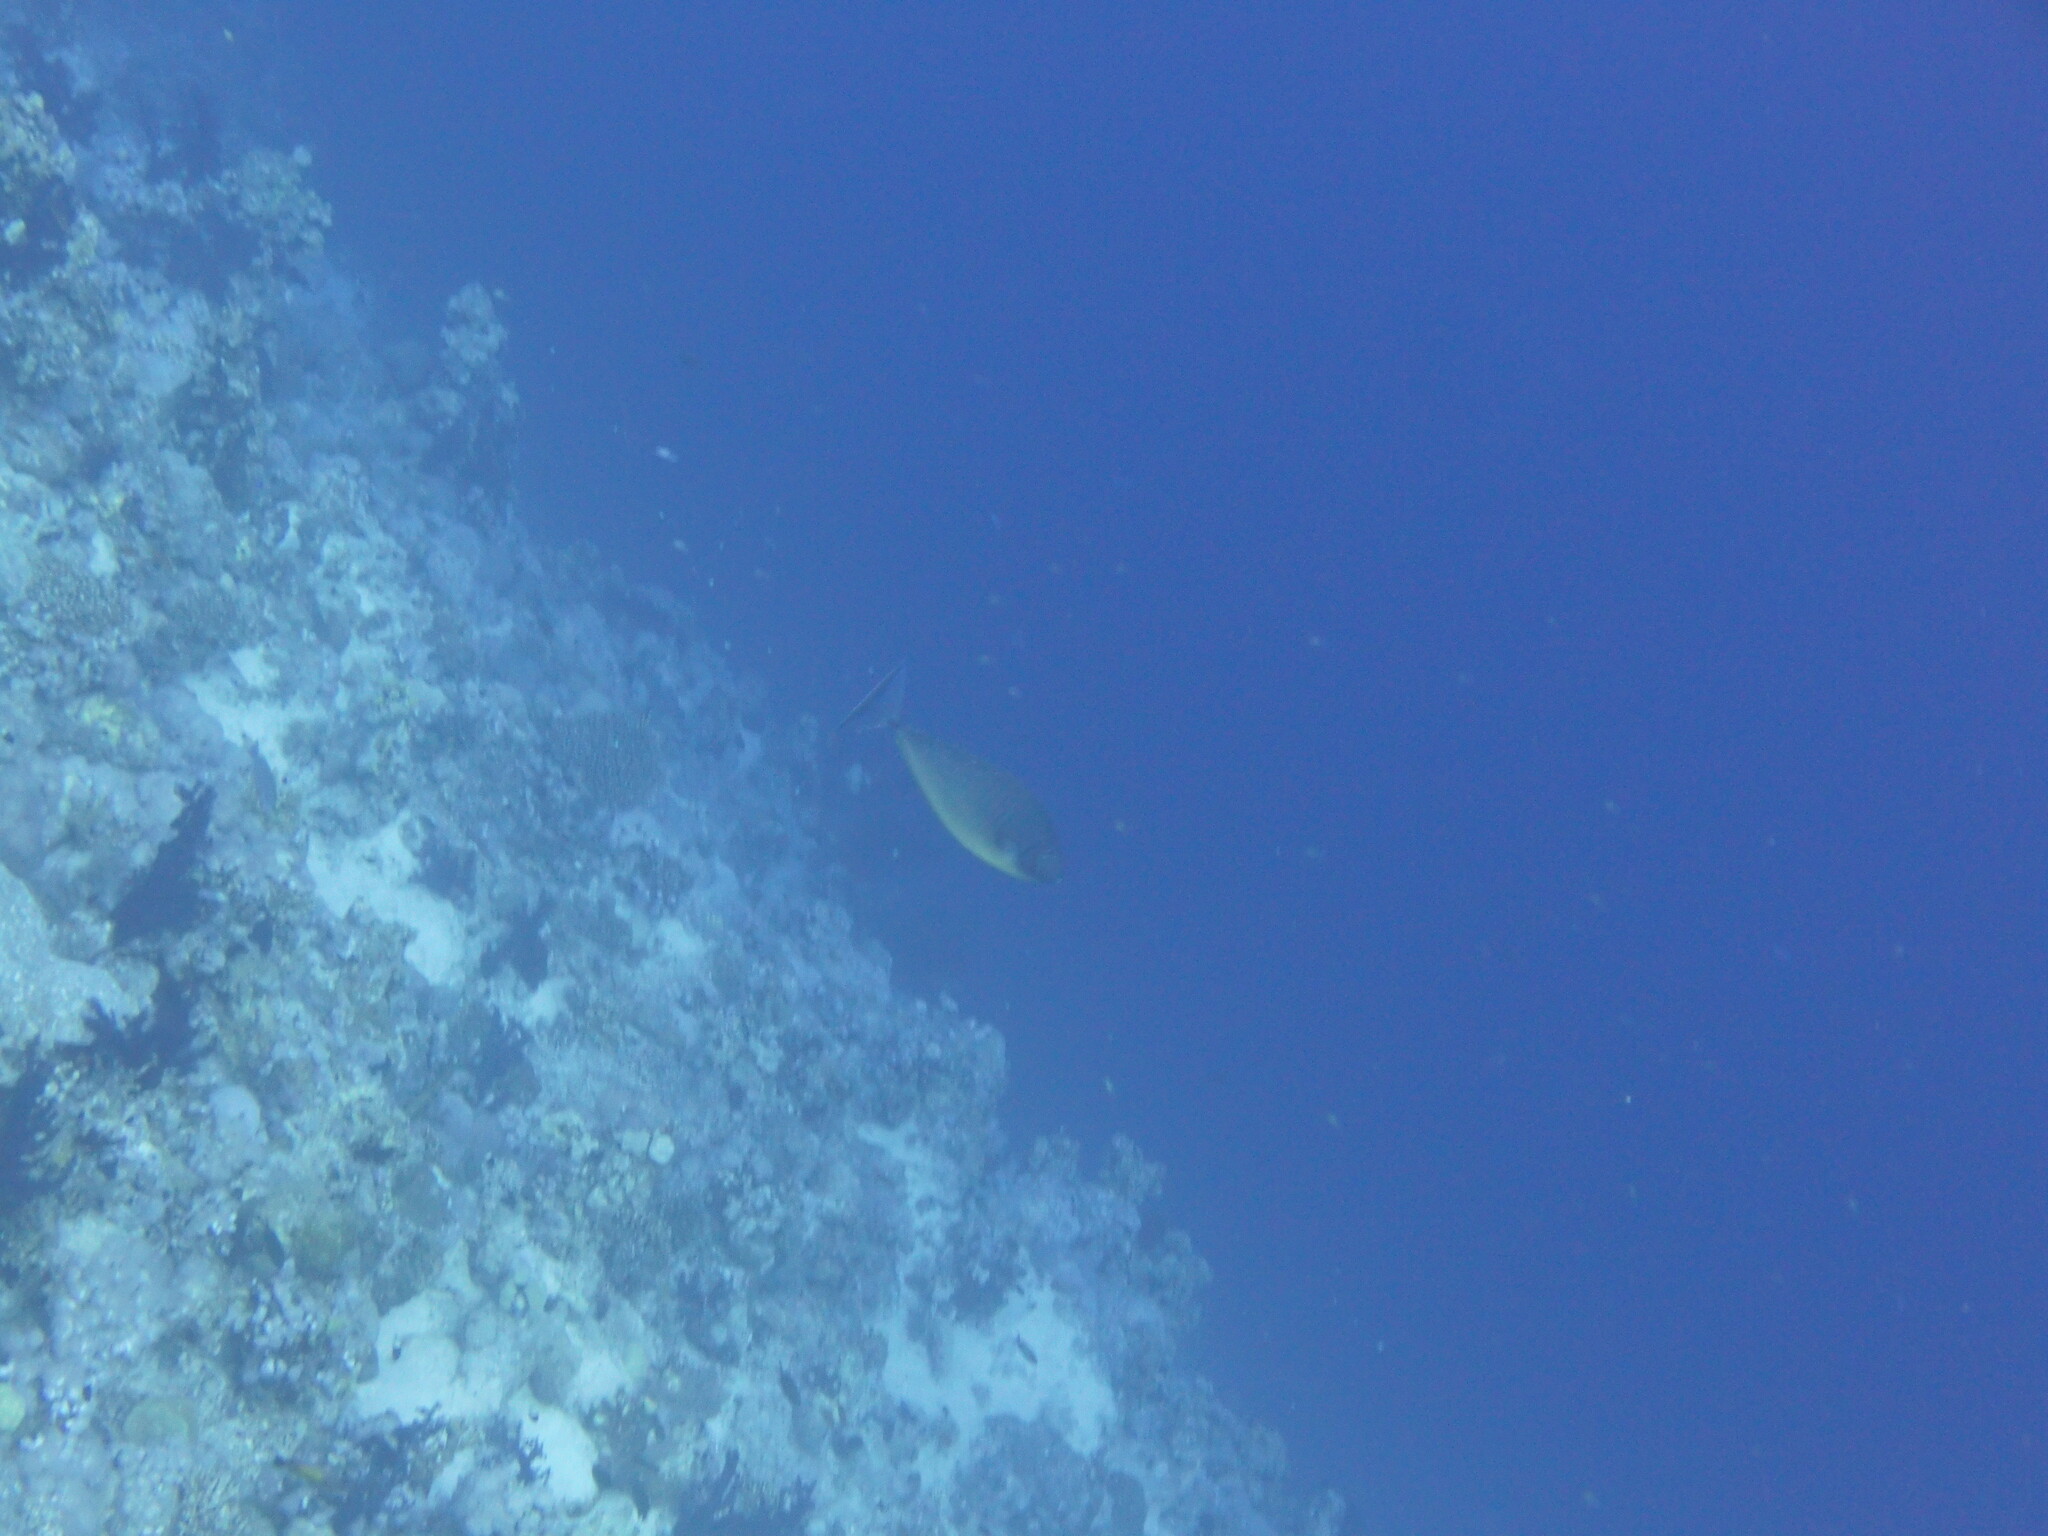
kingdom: Animalia
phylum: Chordata
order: Perciformes
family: Acanthuridae
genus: Naso
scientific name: Naso hexacanthus
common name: Black unicornfish
